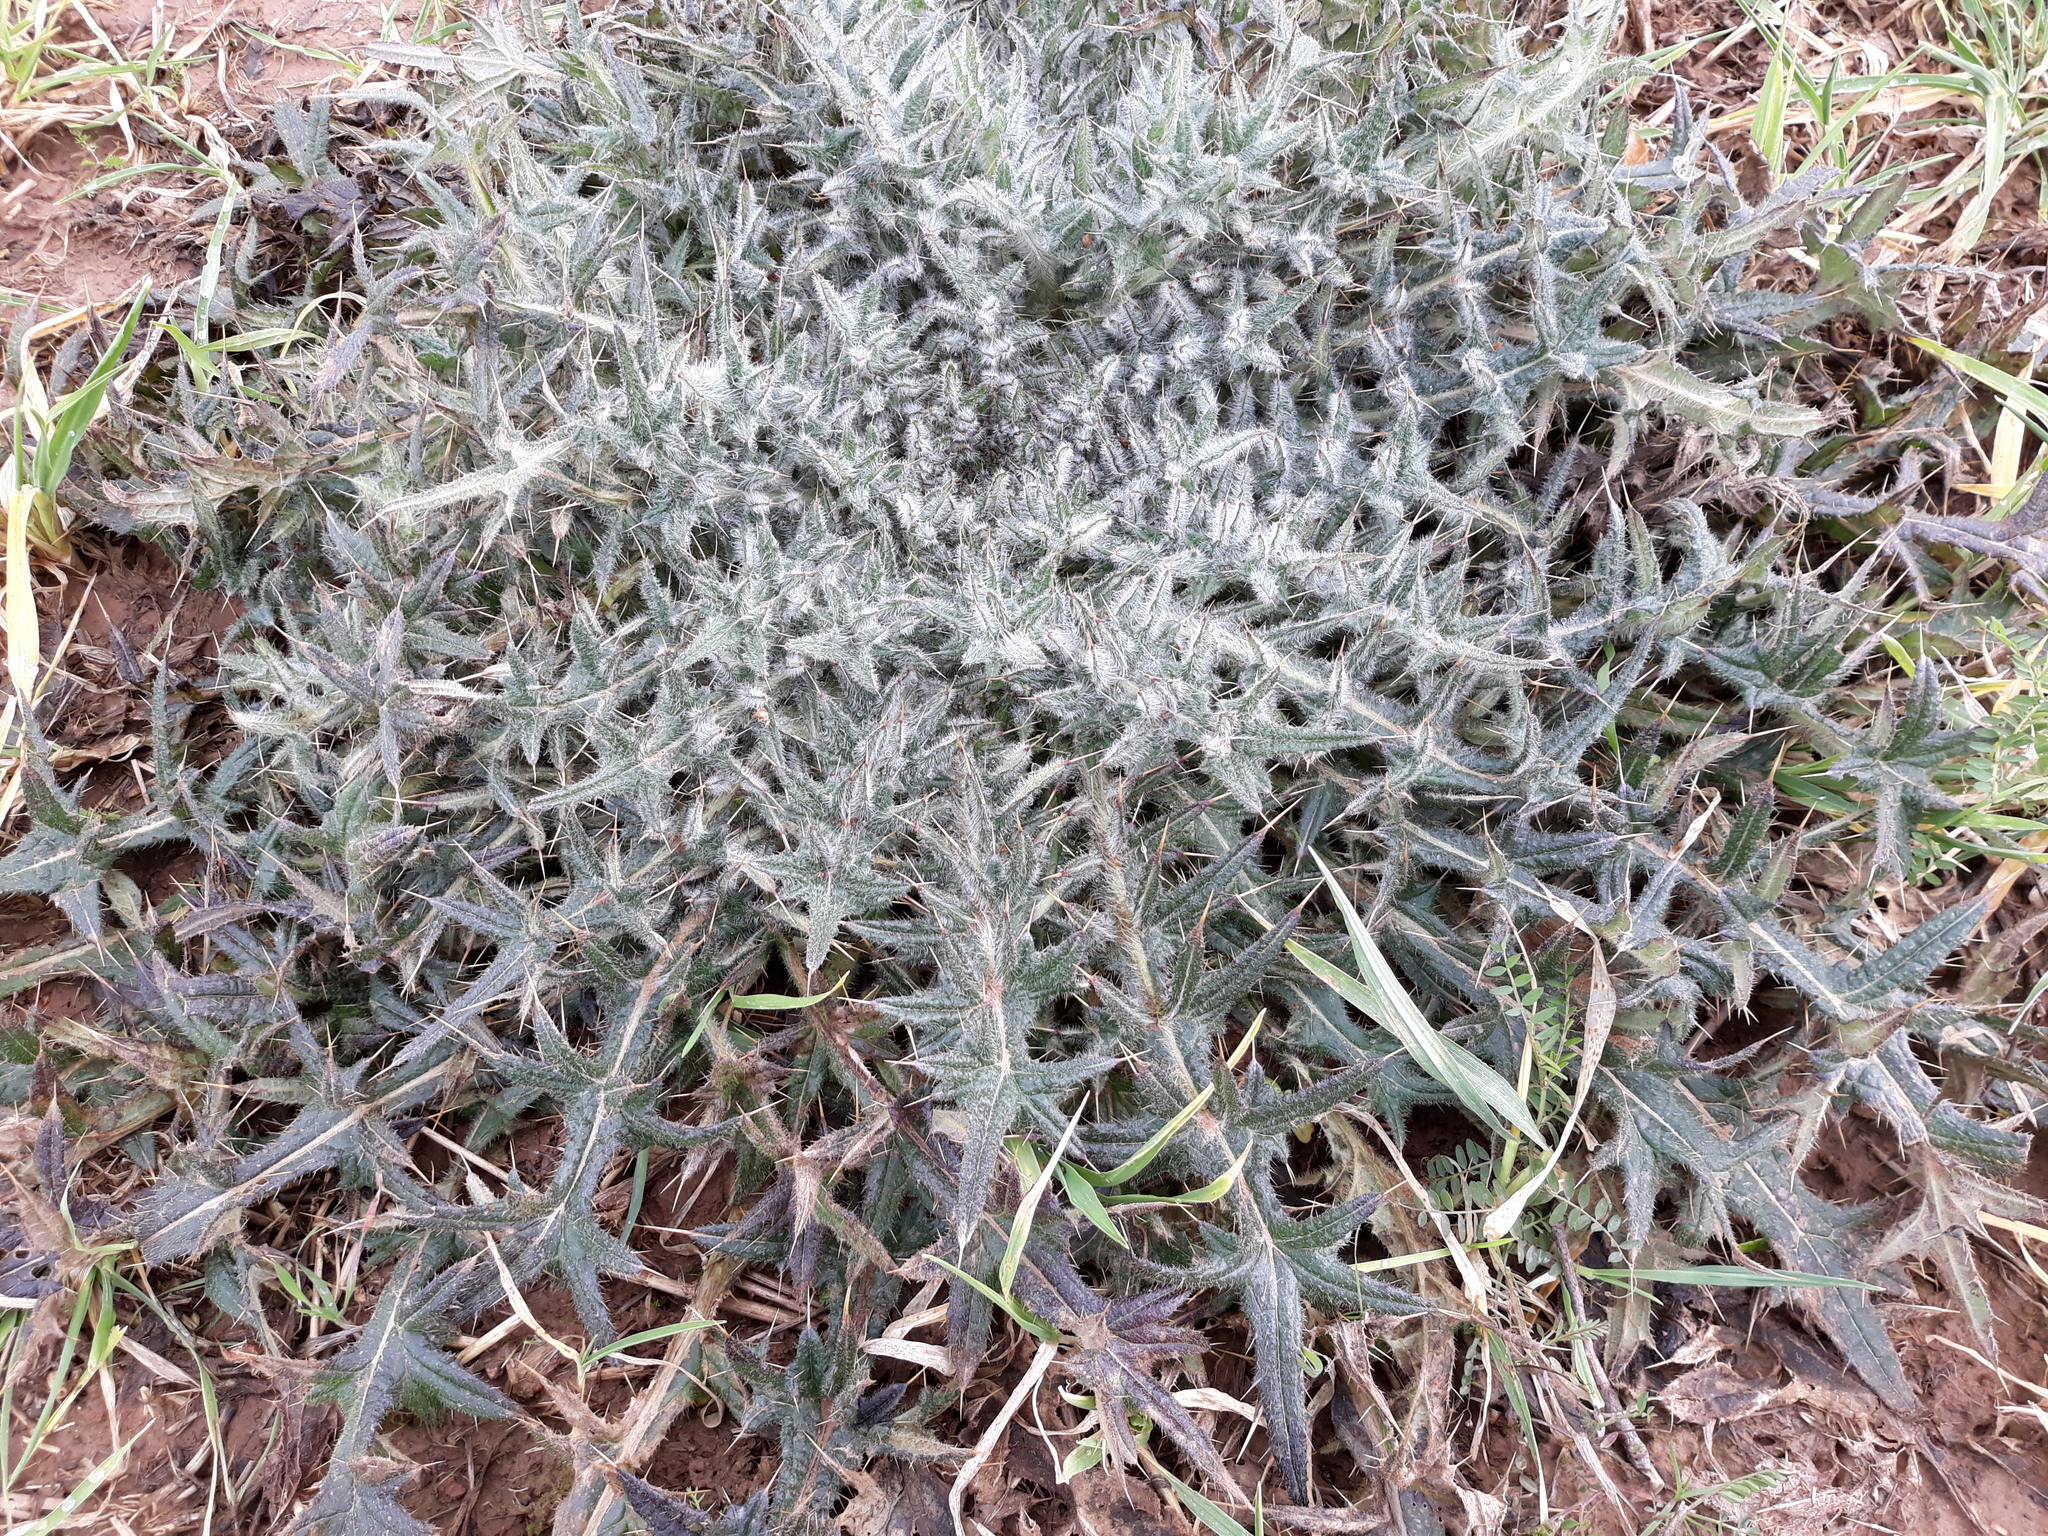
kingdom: Plantae
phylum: Tracheophyta
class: Magnoliopsida
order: Asterales
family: Asteraceae
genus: Cirsium
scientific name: Cirsium vulgare
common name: Bull thistle
